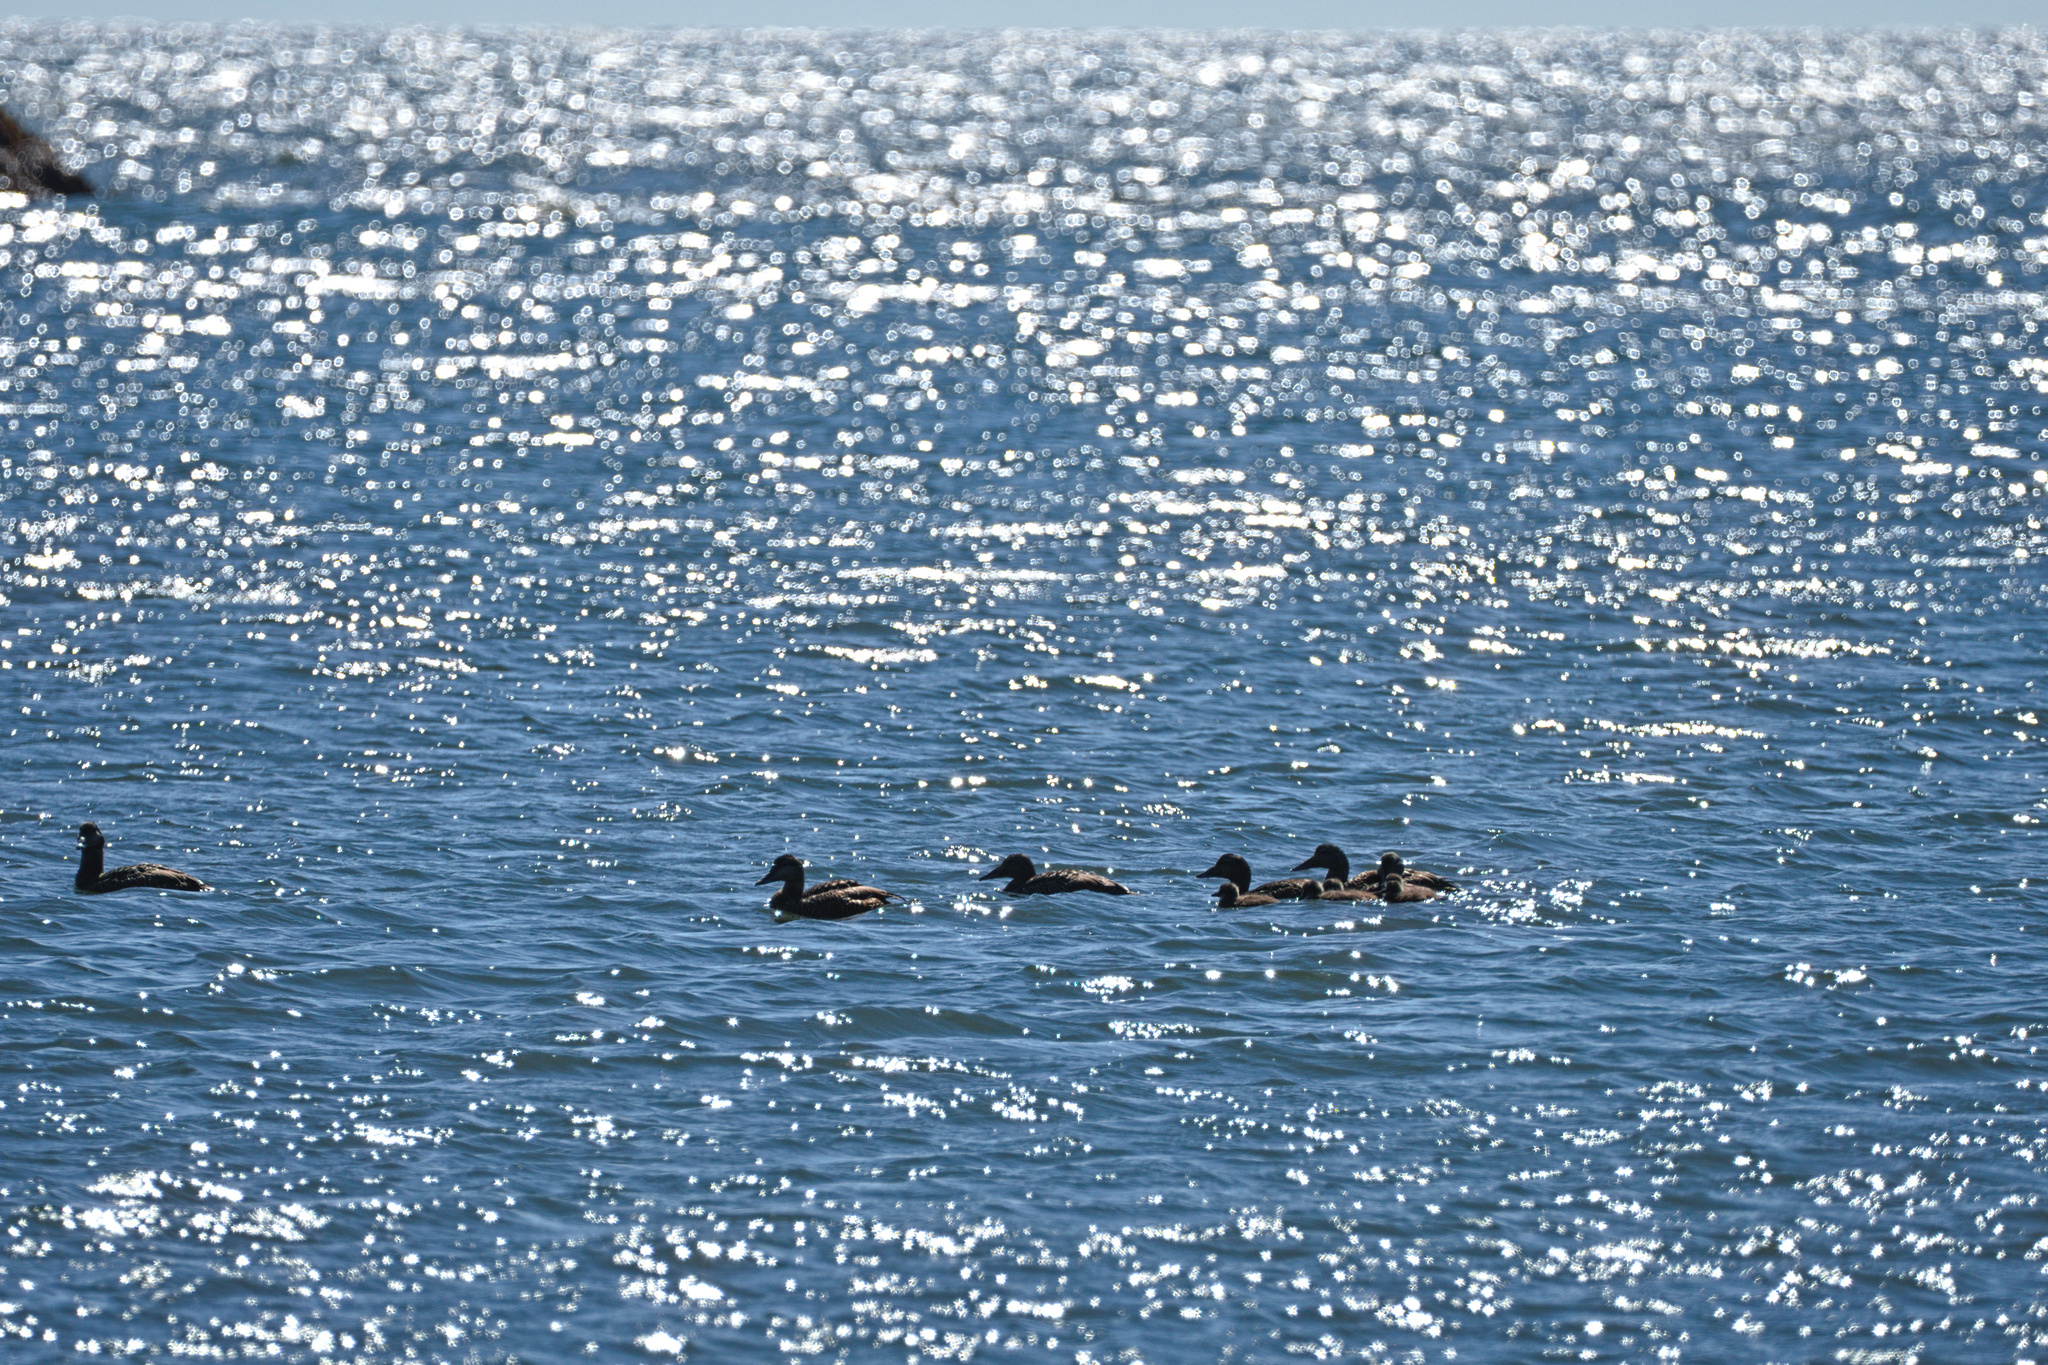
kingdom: Animalia
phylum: Chordata
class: Aves
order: Anseriformes
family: Anatidae
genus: Somateria
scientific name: Somateria mollissima
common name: Common eider
